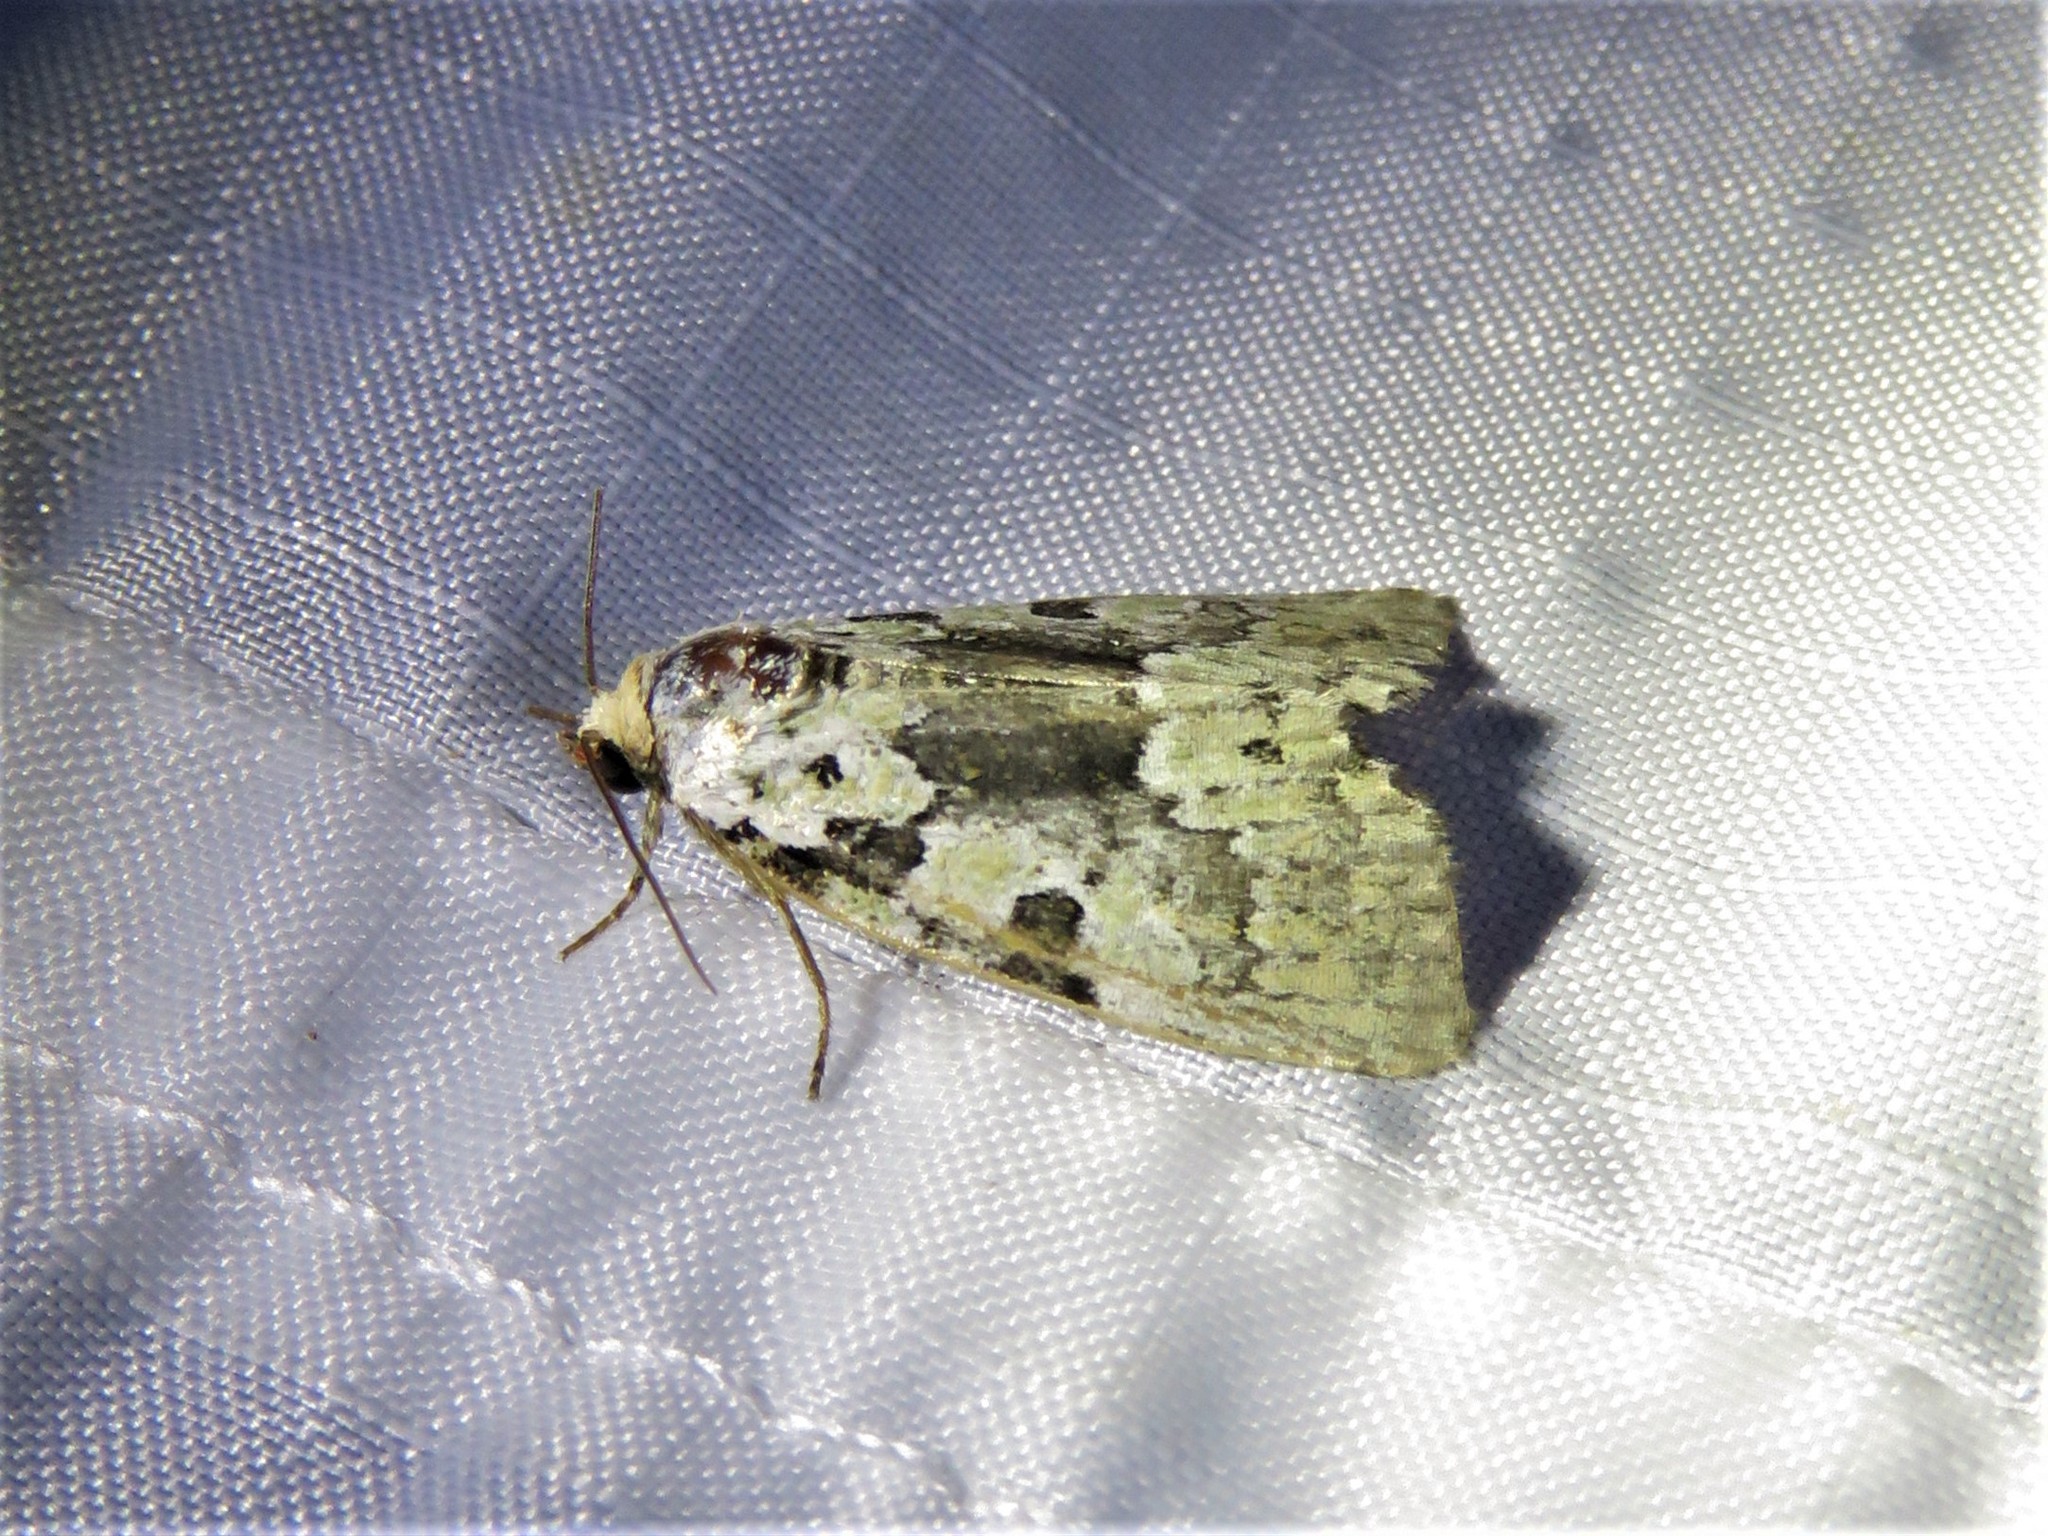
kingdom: Animalia
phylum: Arthropoda
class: Insecta
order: Lepidoptera
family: Noctuidae
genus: Leuconycta
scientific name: Leuconycta lepidula
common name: Marbled-green leuconycta moth
